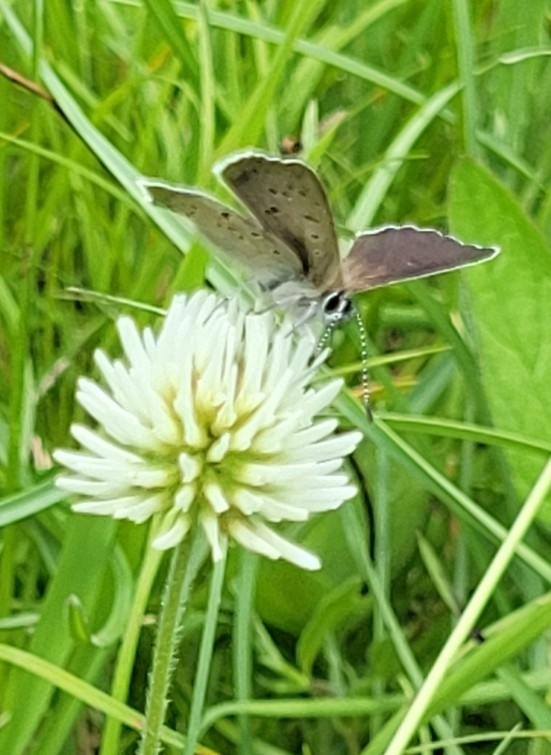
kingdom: Animalia
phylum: Arthropoda
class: Insecta
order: Lepidoptera
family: Lycaenidae
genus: Loweia
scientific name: Loweia tityrus
